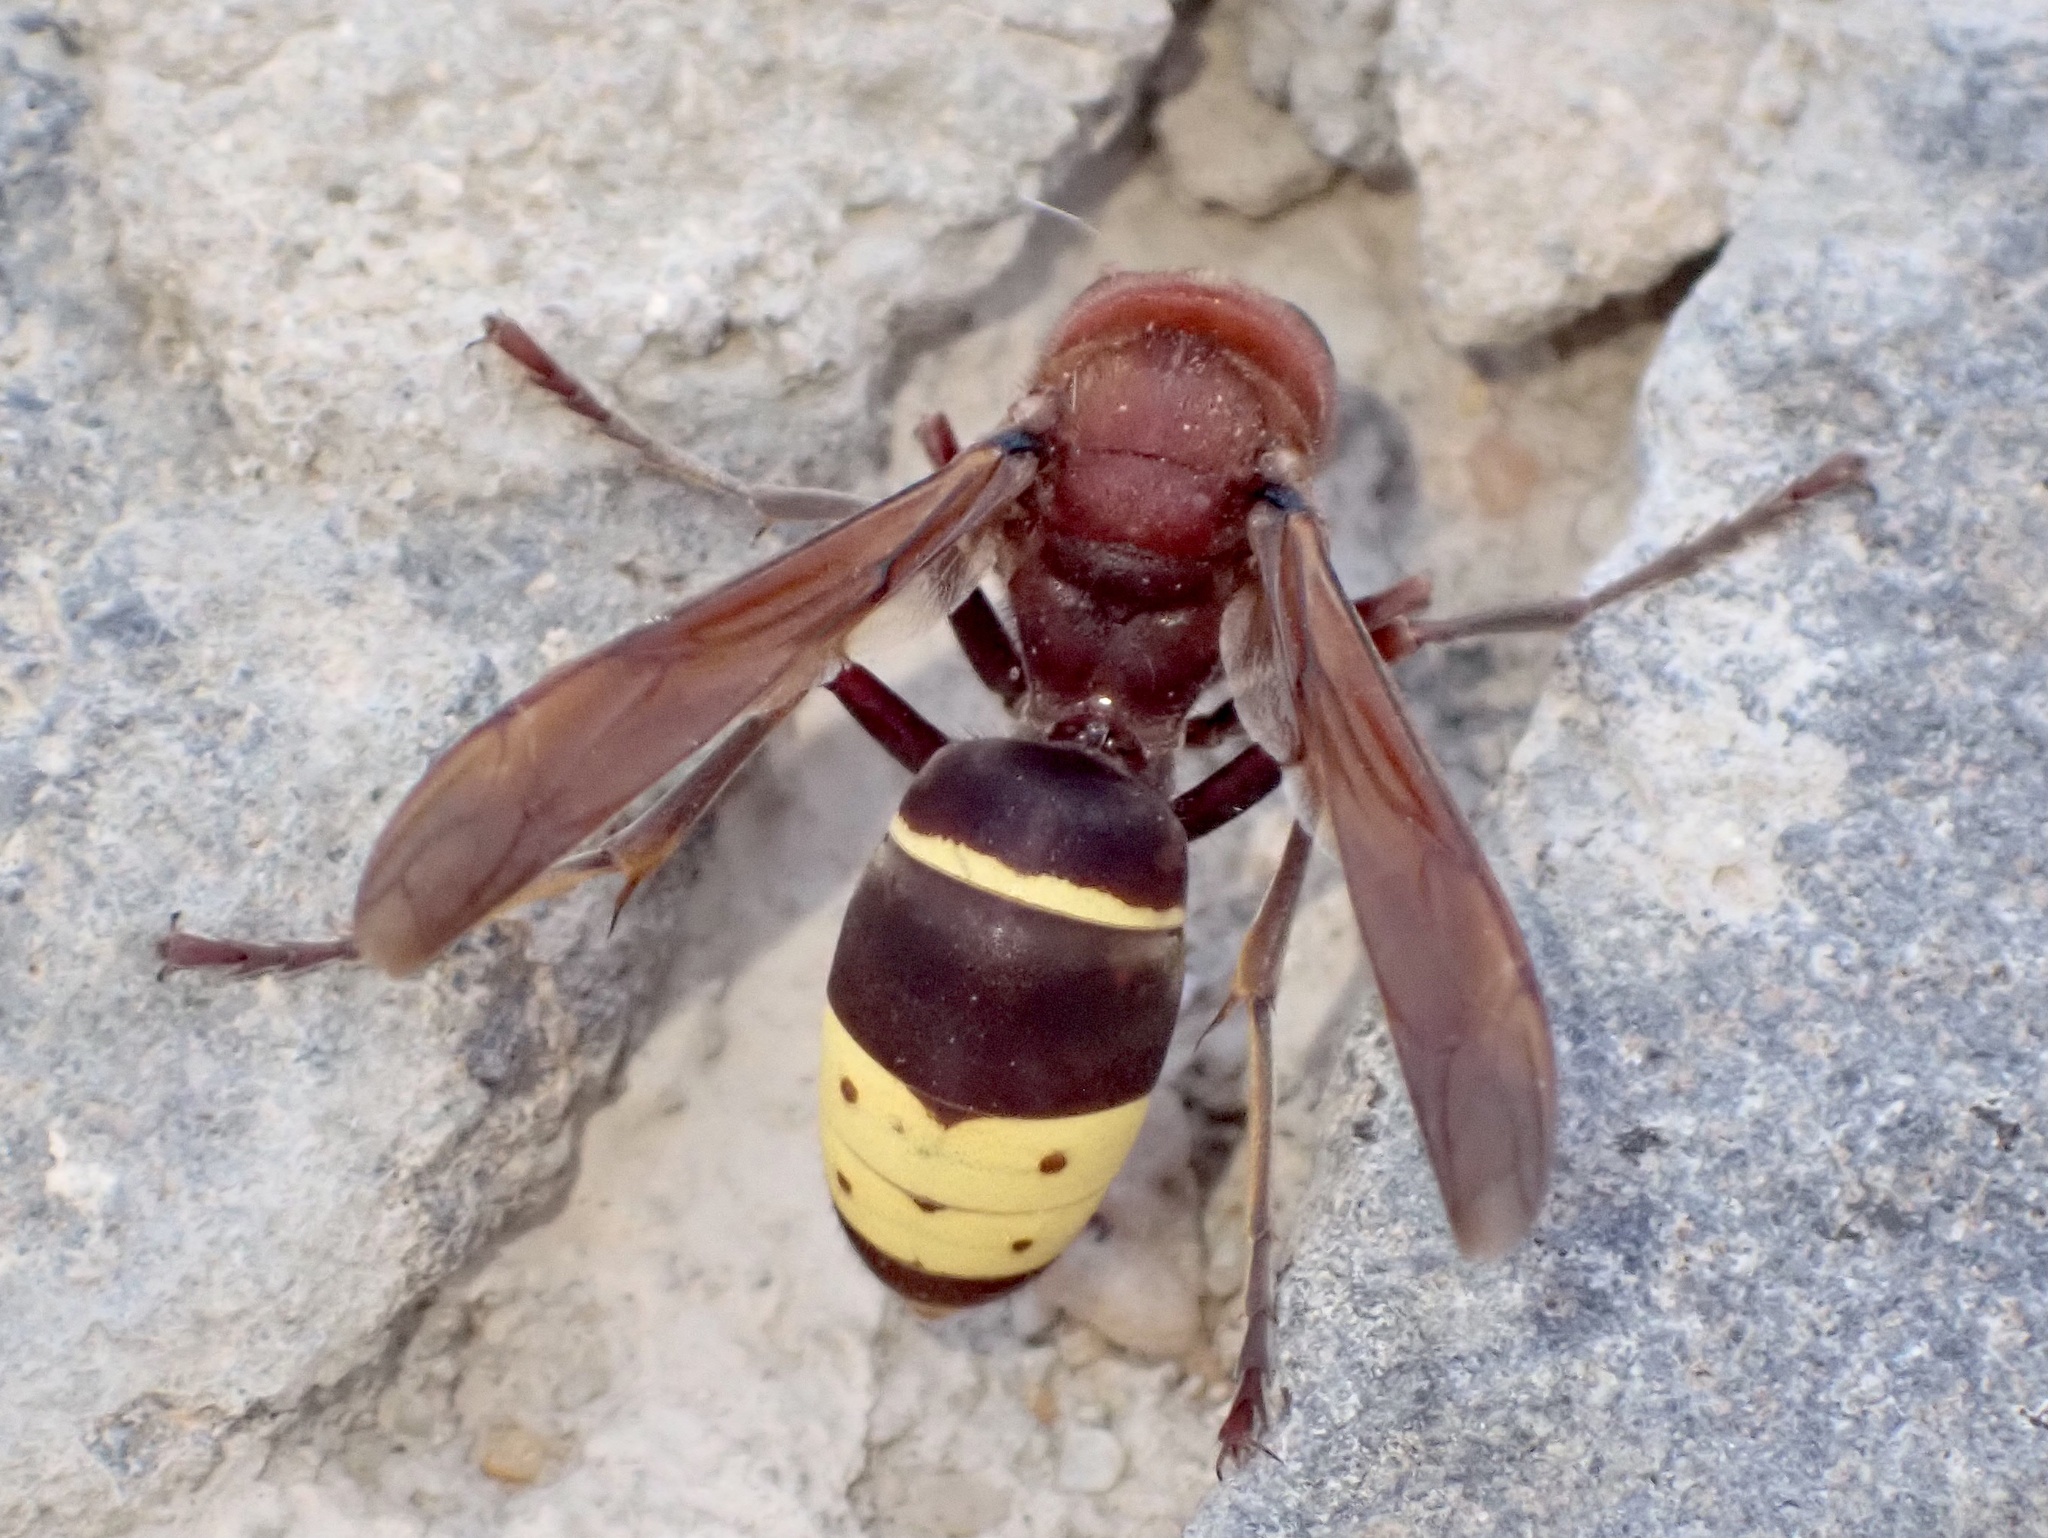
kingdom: Animalia
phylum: Arthropoda
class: Insecta
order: Hymenoptera
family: Vespidae
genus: Vespa
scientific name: Vespa orientalis
